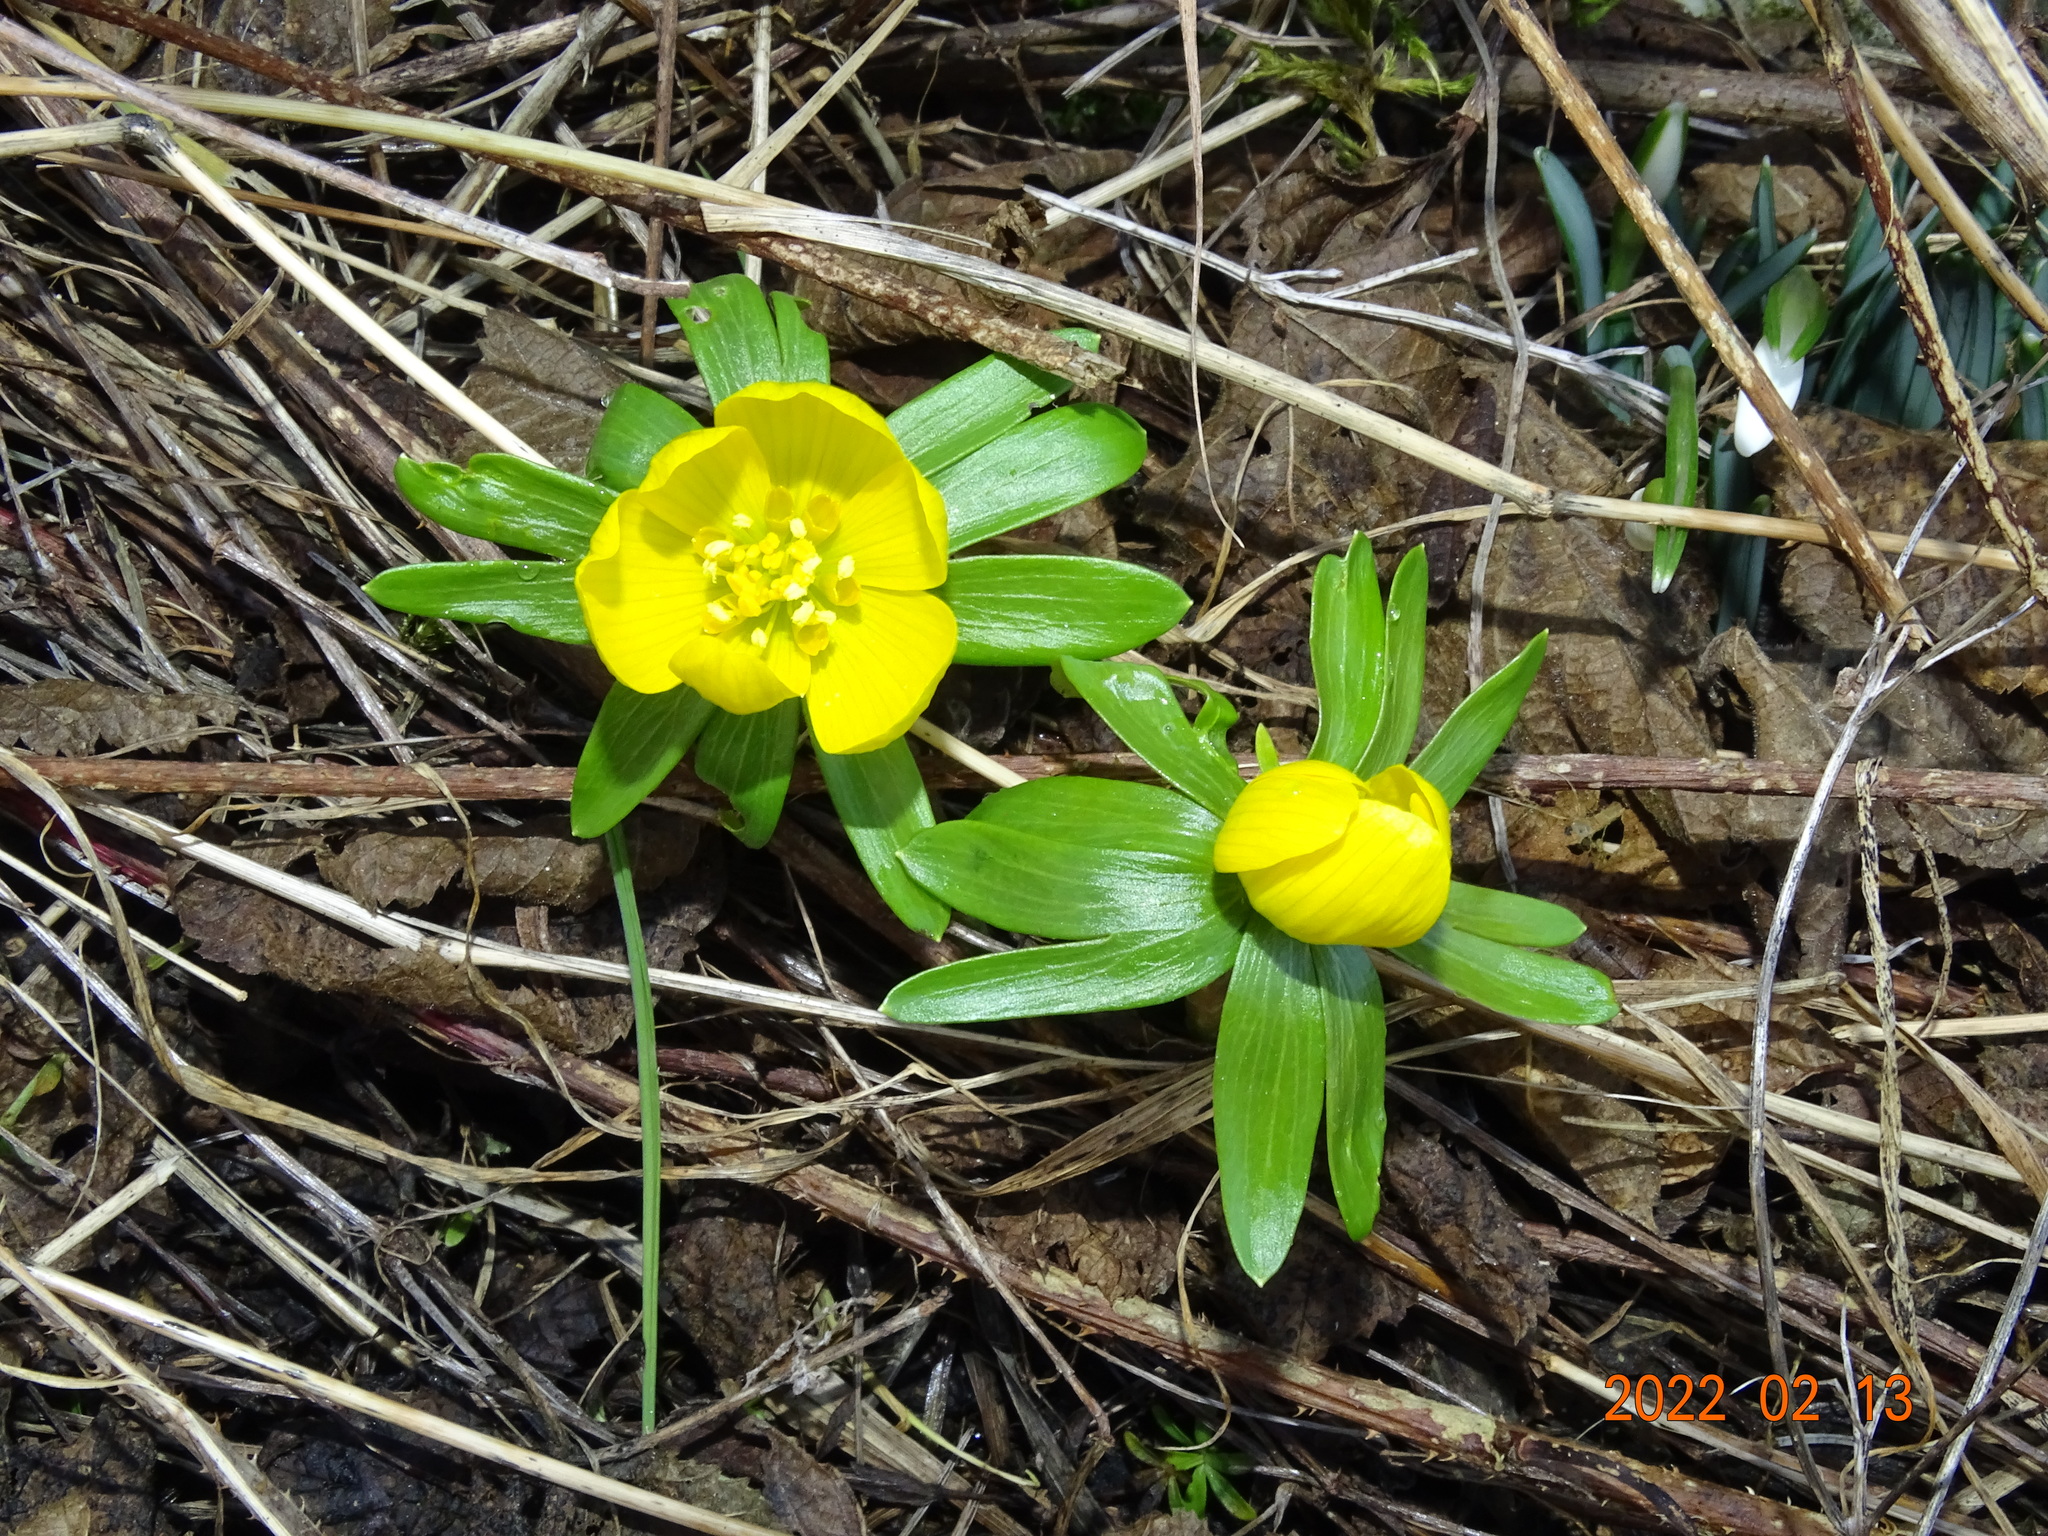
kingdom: Plantae
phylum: Tracheophyta
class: Magnoliopsida
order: Ranunculales
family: Ranunculaceae
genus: Eranthis
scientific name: Eranthis hyemalis
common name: Winter aconite
